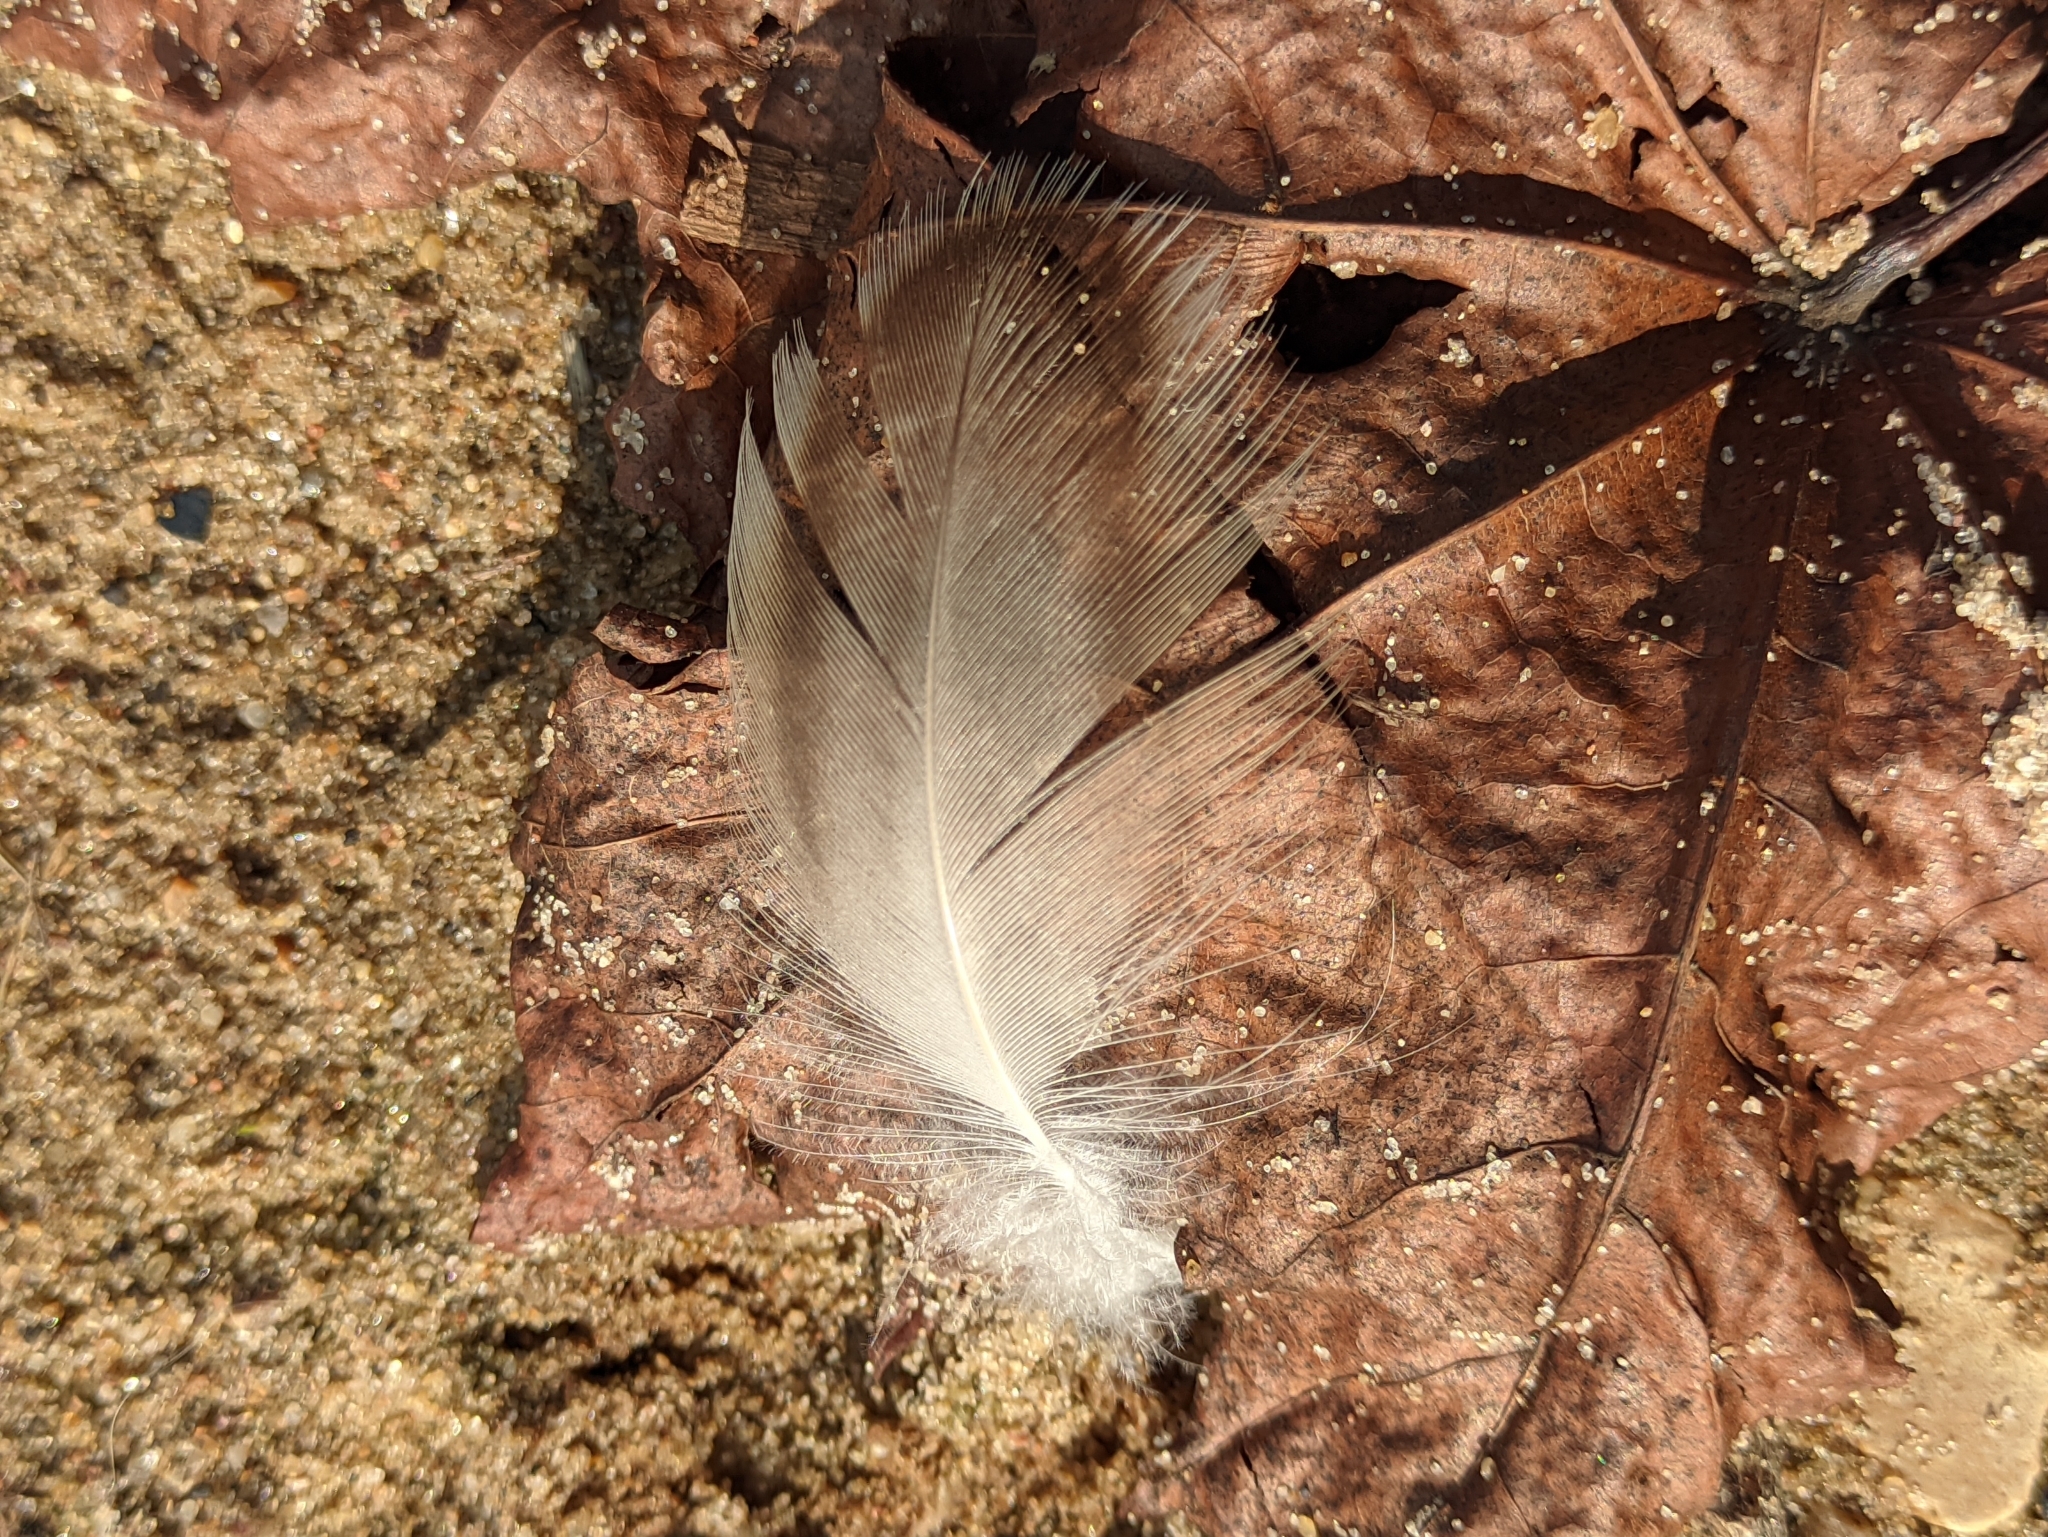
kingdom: Animalia
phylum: Chordata
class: Aves
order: Anseriformes
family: Anatidae
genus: Anas
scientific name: Anas platyrhynchos
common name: Mallard
